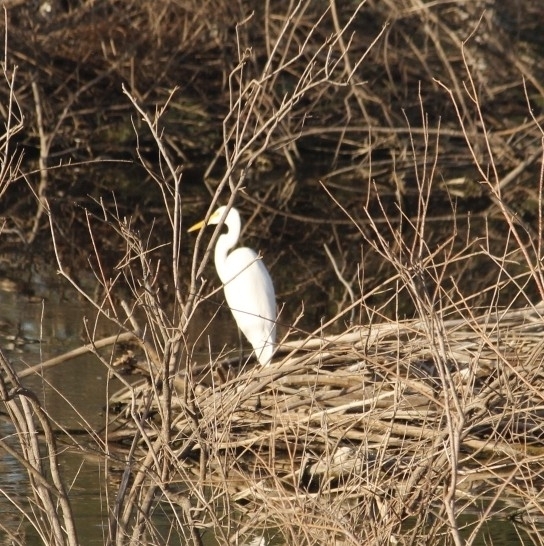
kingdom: Animalia
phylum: Chordata
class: Aves
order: Pelecaniformes
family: Ardeidae
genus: Ardea
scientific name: Ardea alba
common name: Great egret
